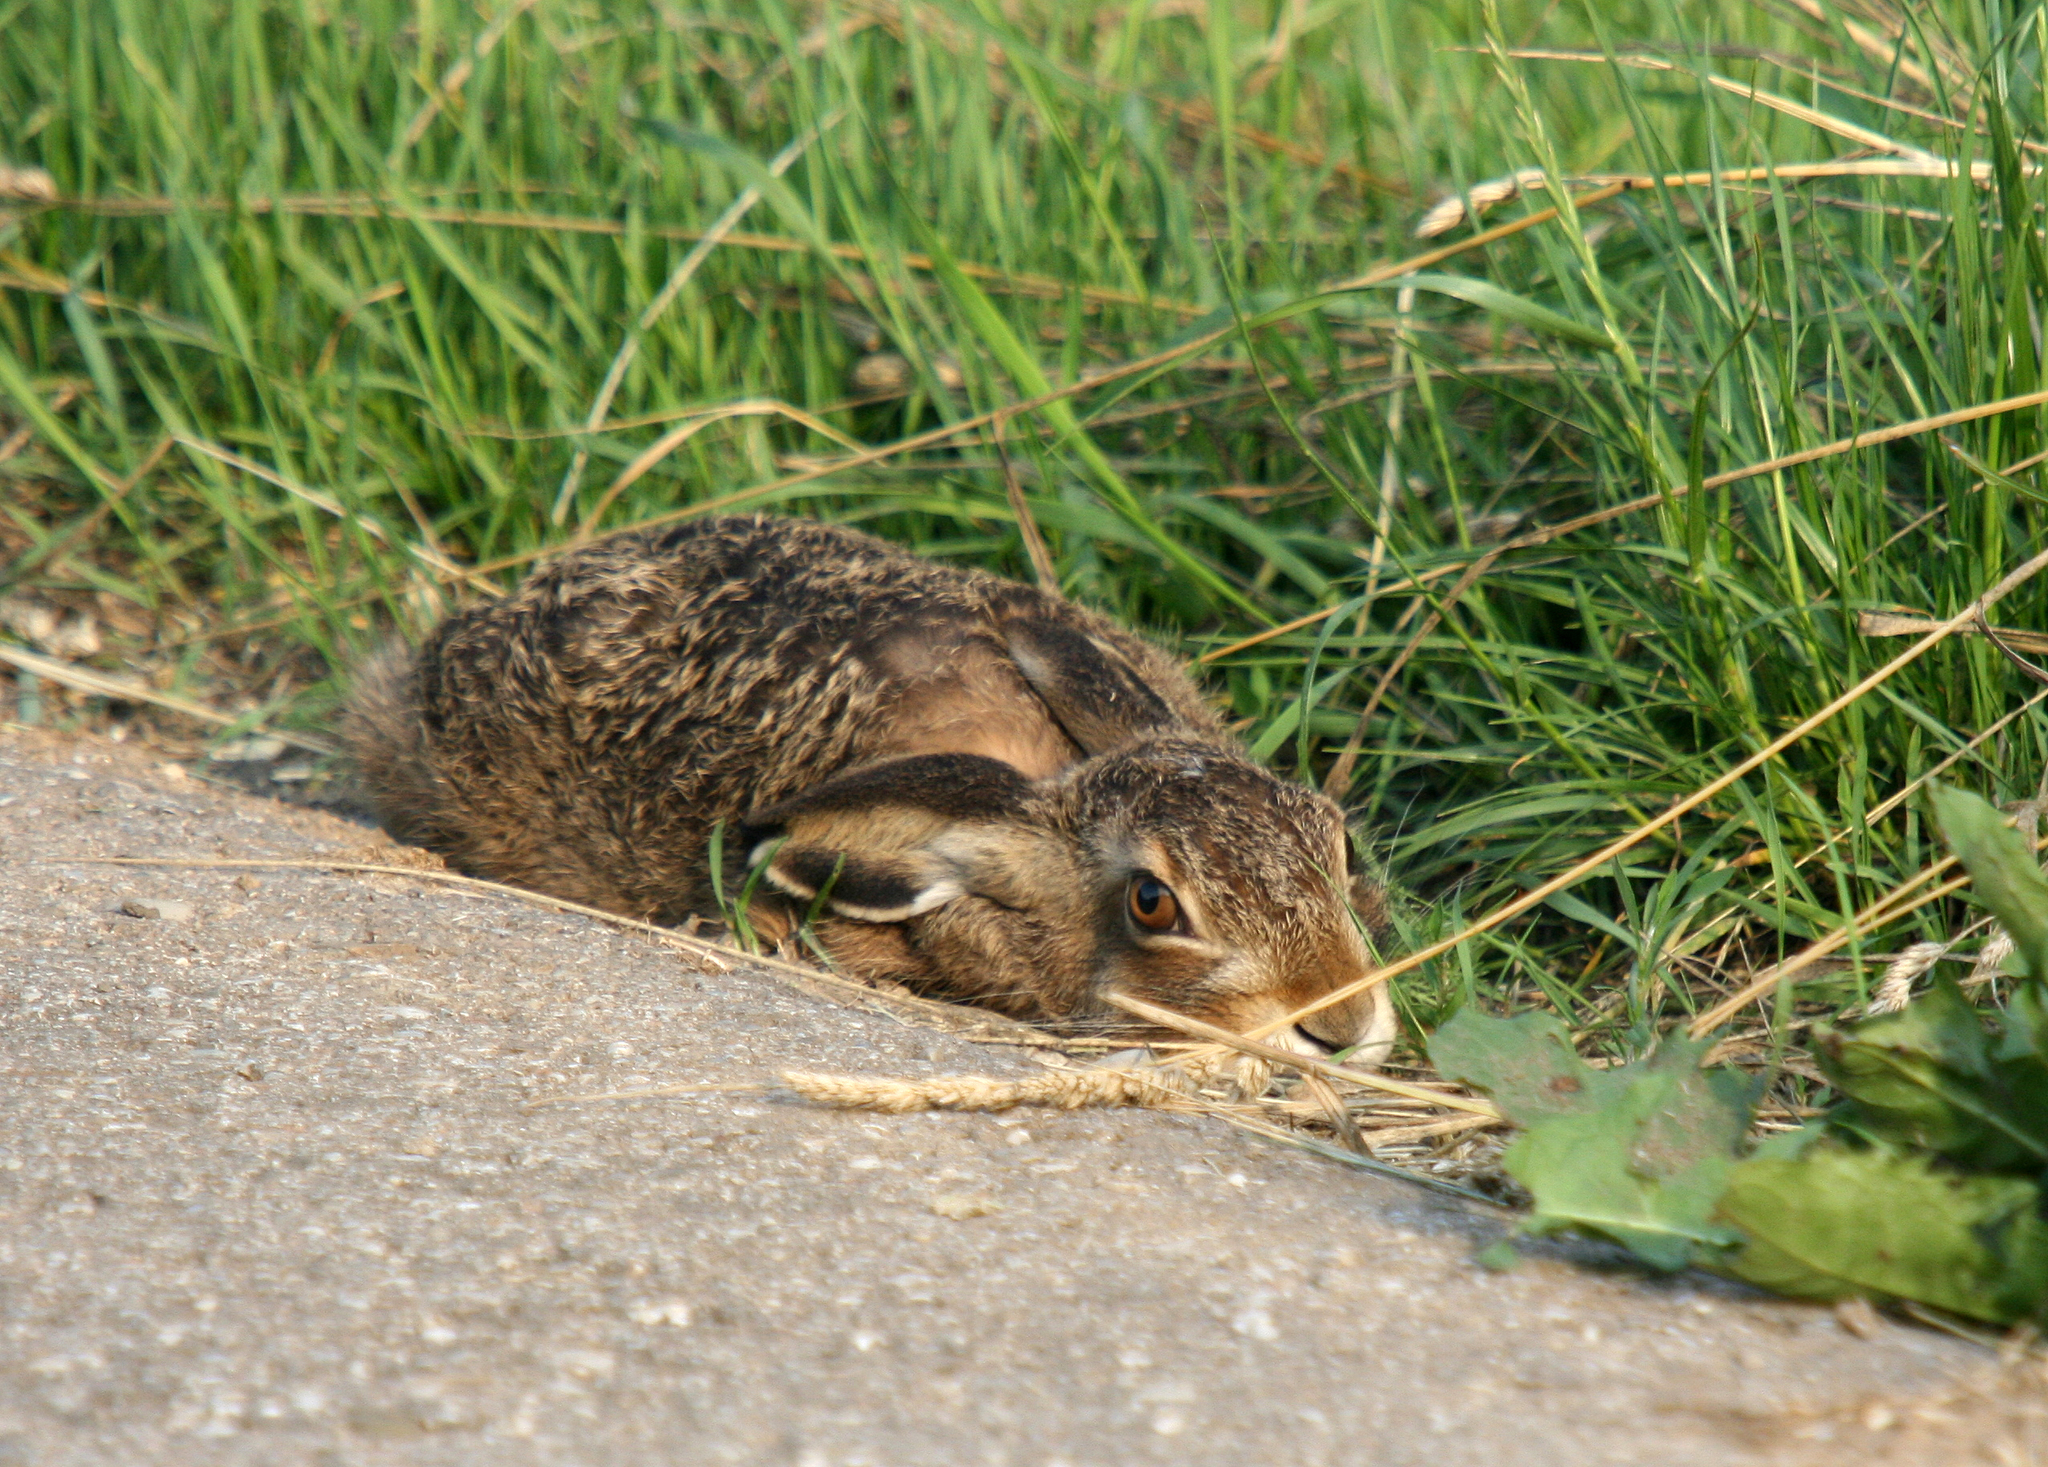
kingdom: Animalia
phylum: Chordata
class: Mammalia
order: Lagomorpha
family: Leporidae
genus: Lepus
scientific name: Lepus europaeus
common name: European hare
